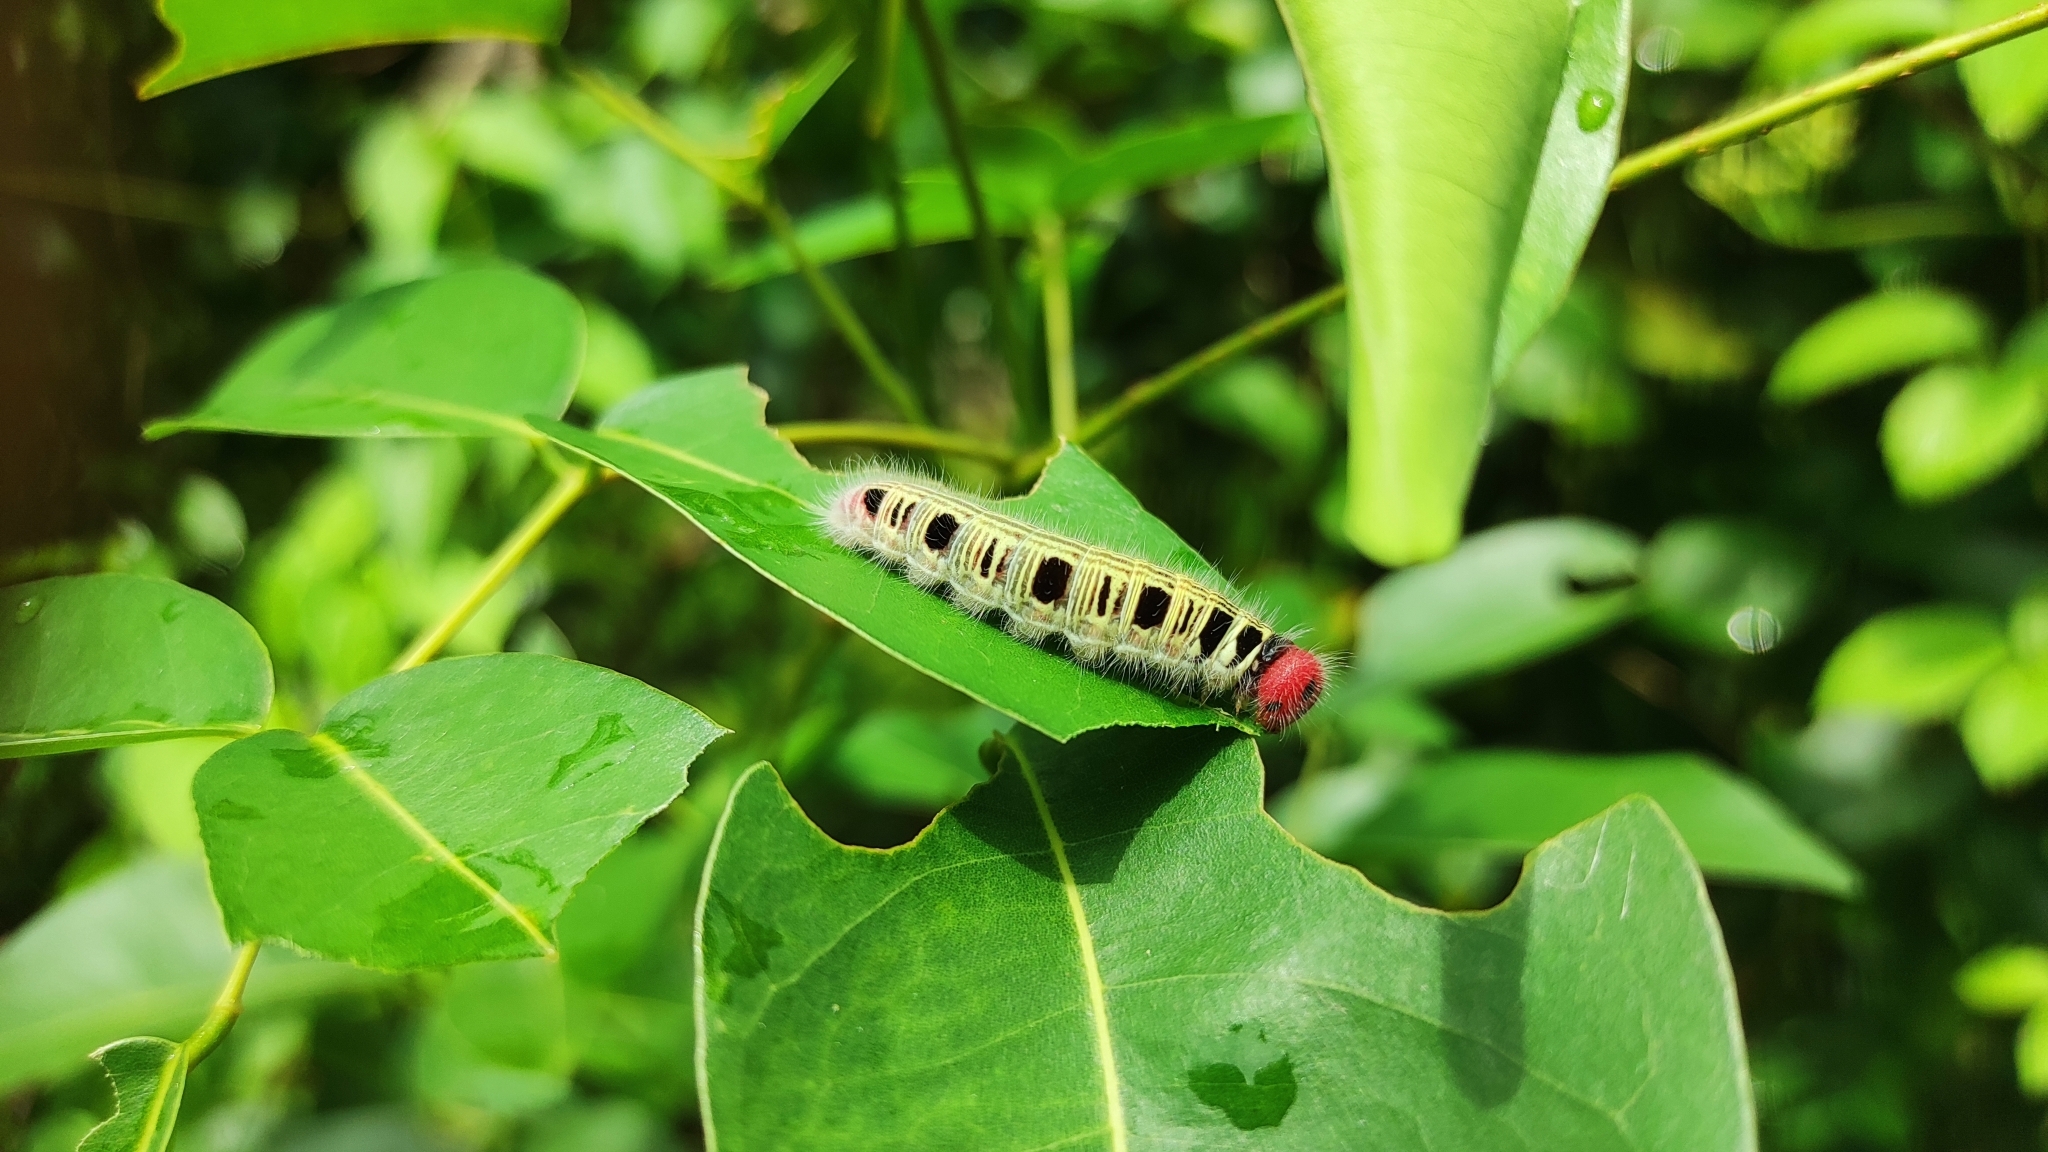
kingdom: Animalia
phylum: Arthropoda
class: Insecta
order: Lepidoptera
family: Hesperiidae
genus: Hasora
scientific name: Hasora badra
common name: Common awl
